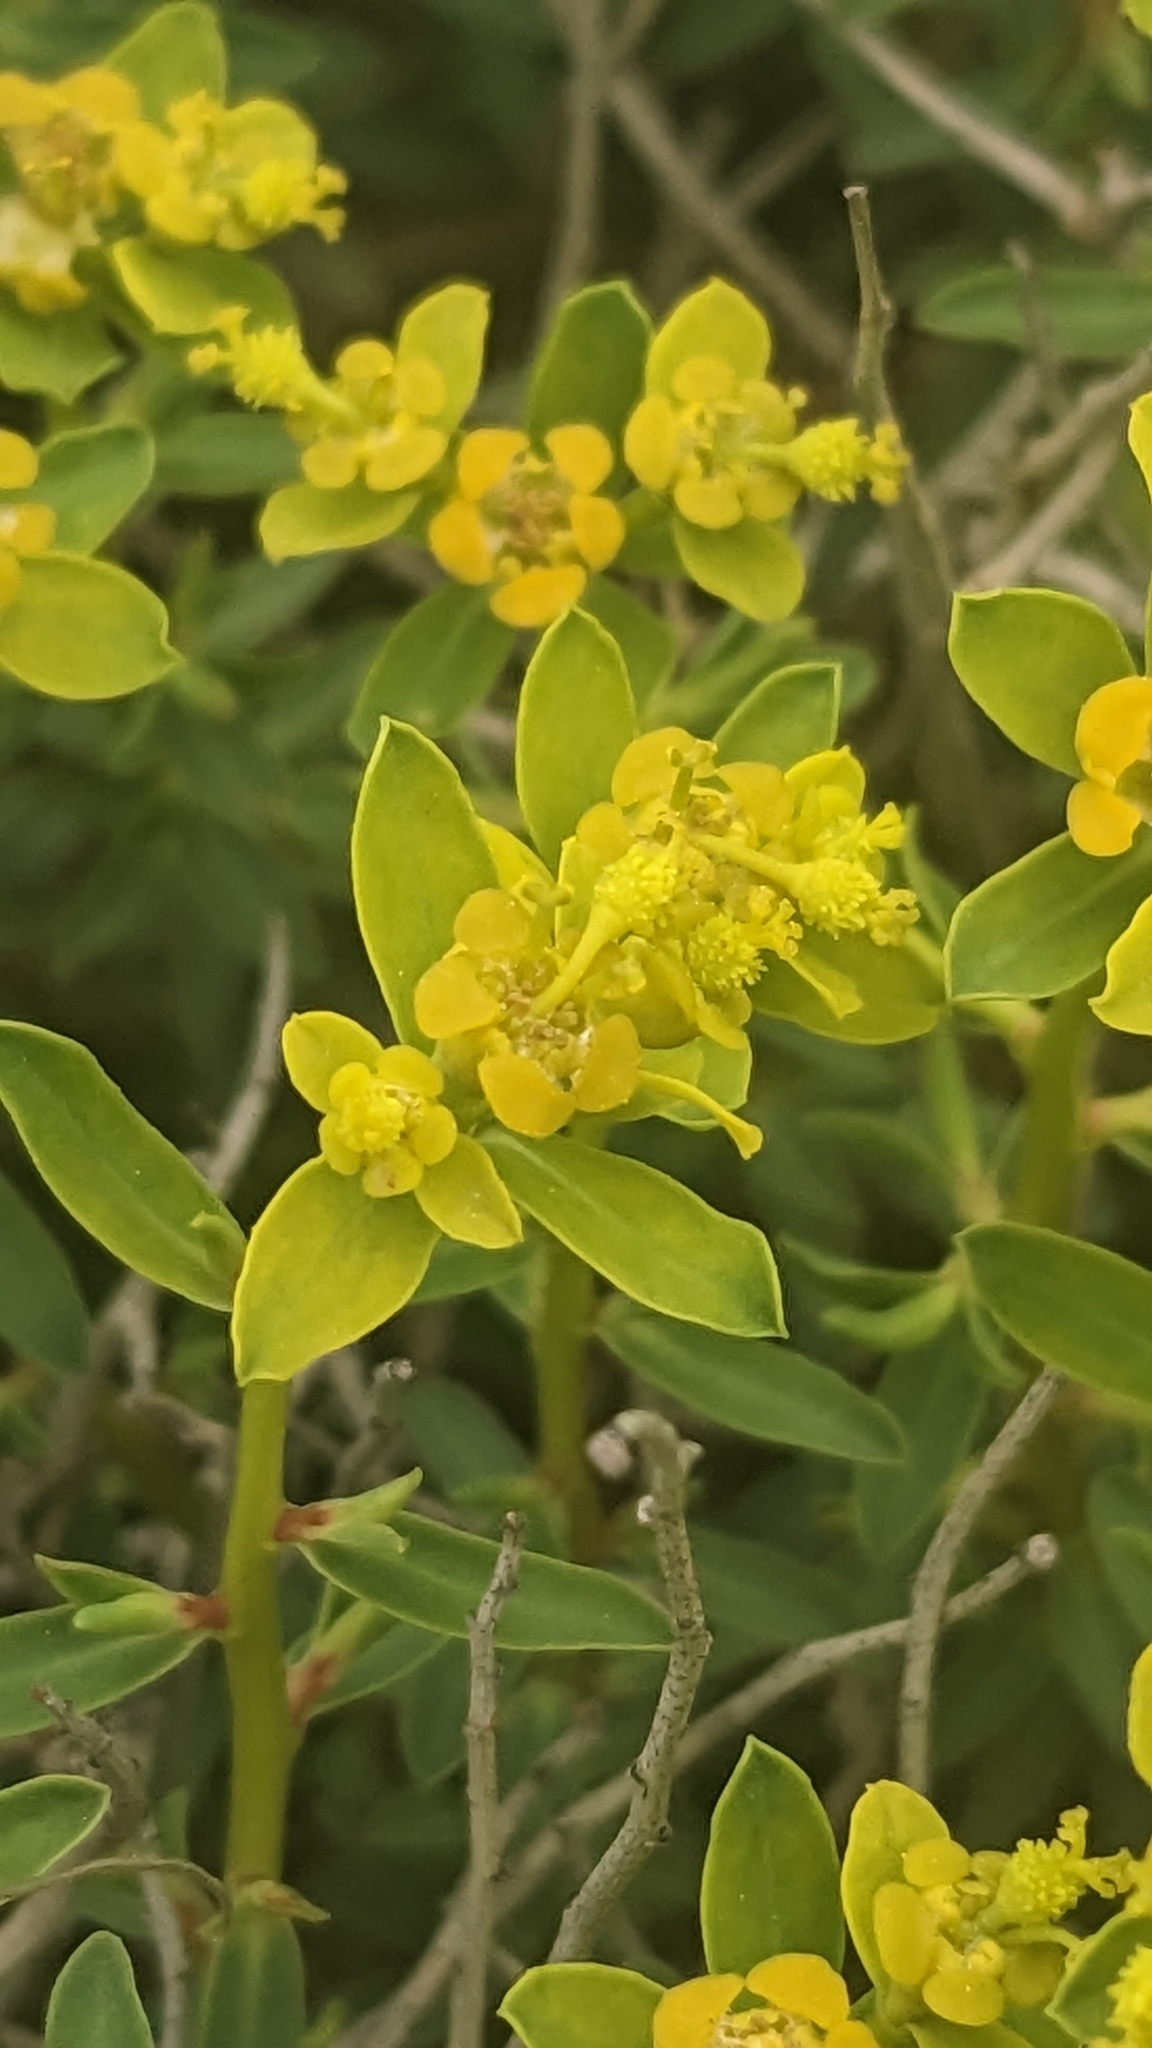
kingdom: Plantae
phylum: Tracheophyta
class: Magnoliopsida
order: Malpighiales
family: Euphorbiaceae
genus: Euphorbia
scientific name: Euphorbia spinosa
